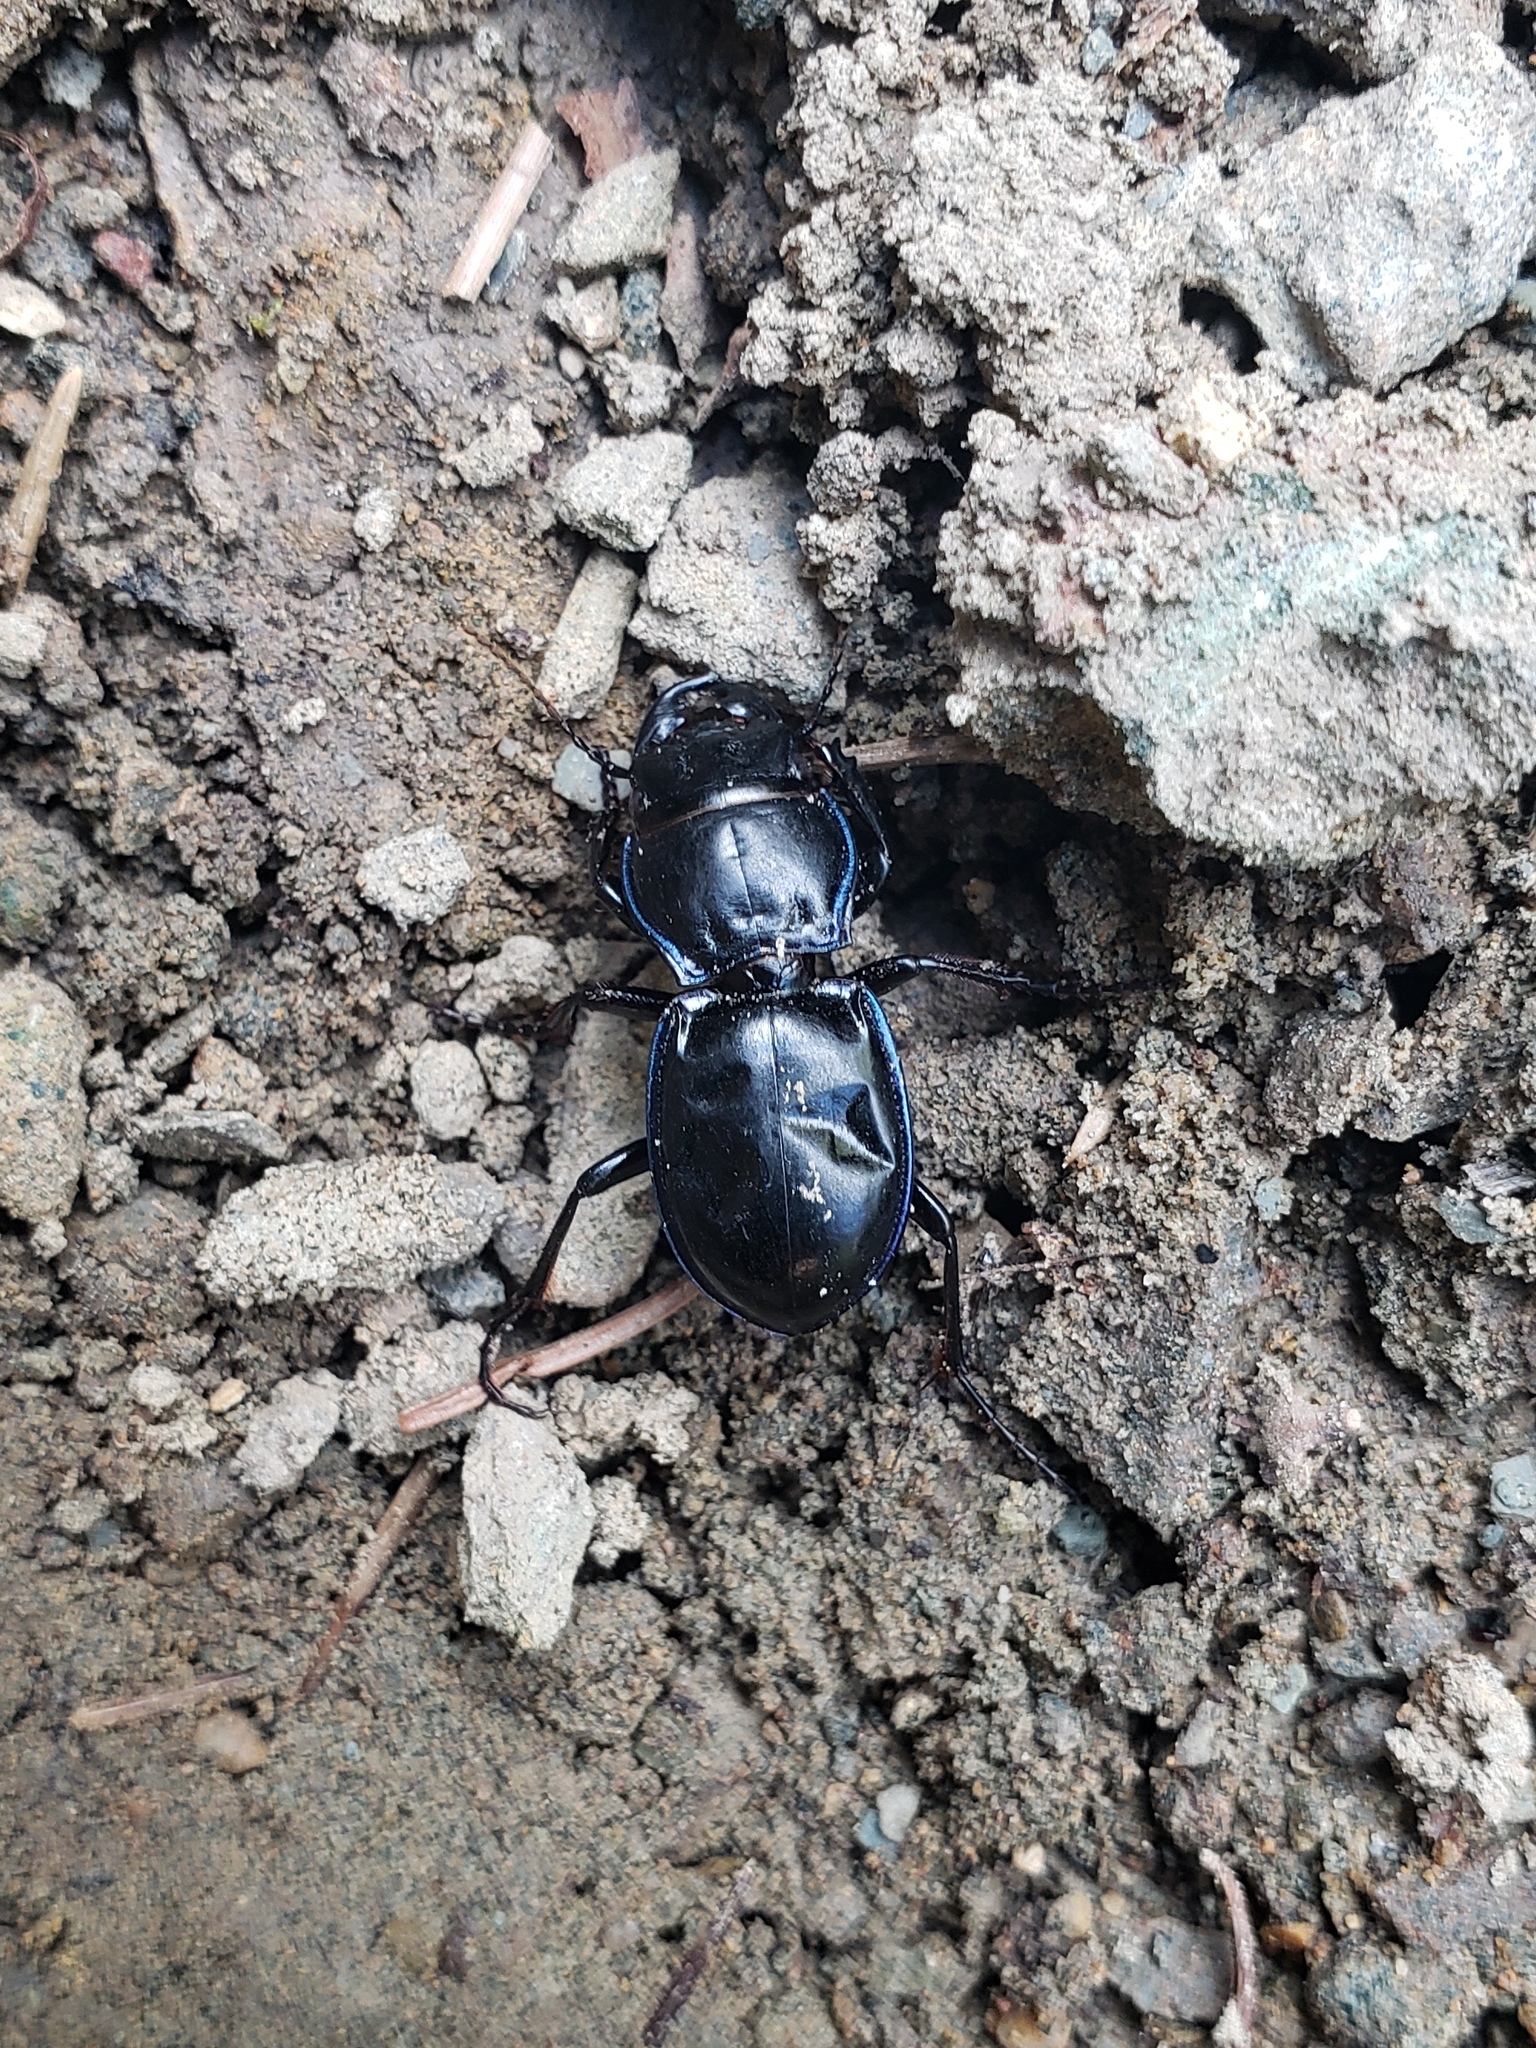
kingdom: Animalia
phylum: Arthropoda
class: Insecta
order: Coleoptera
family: Carabidae
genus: Pasimachus
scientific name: Pasimachus
